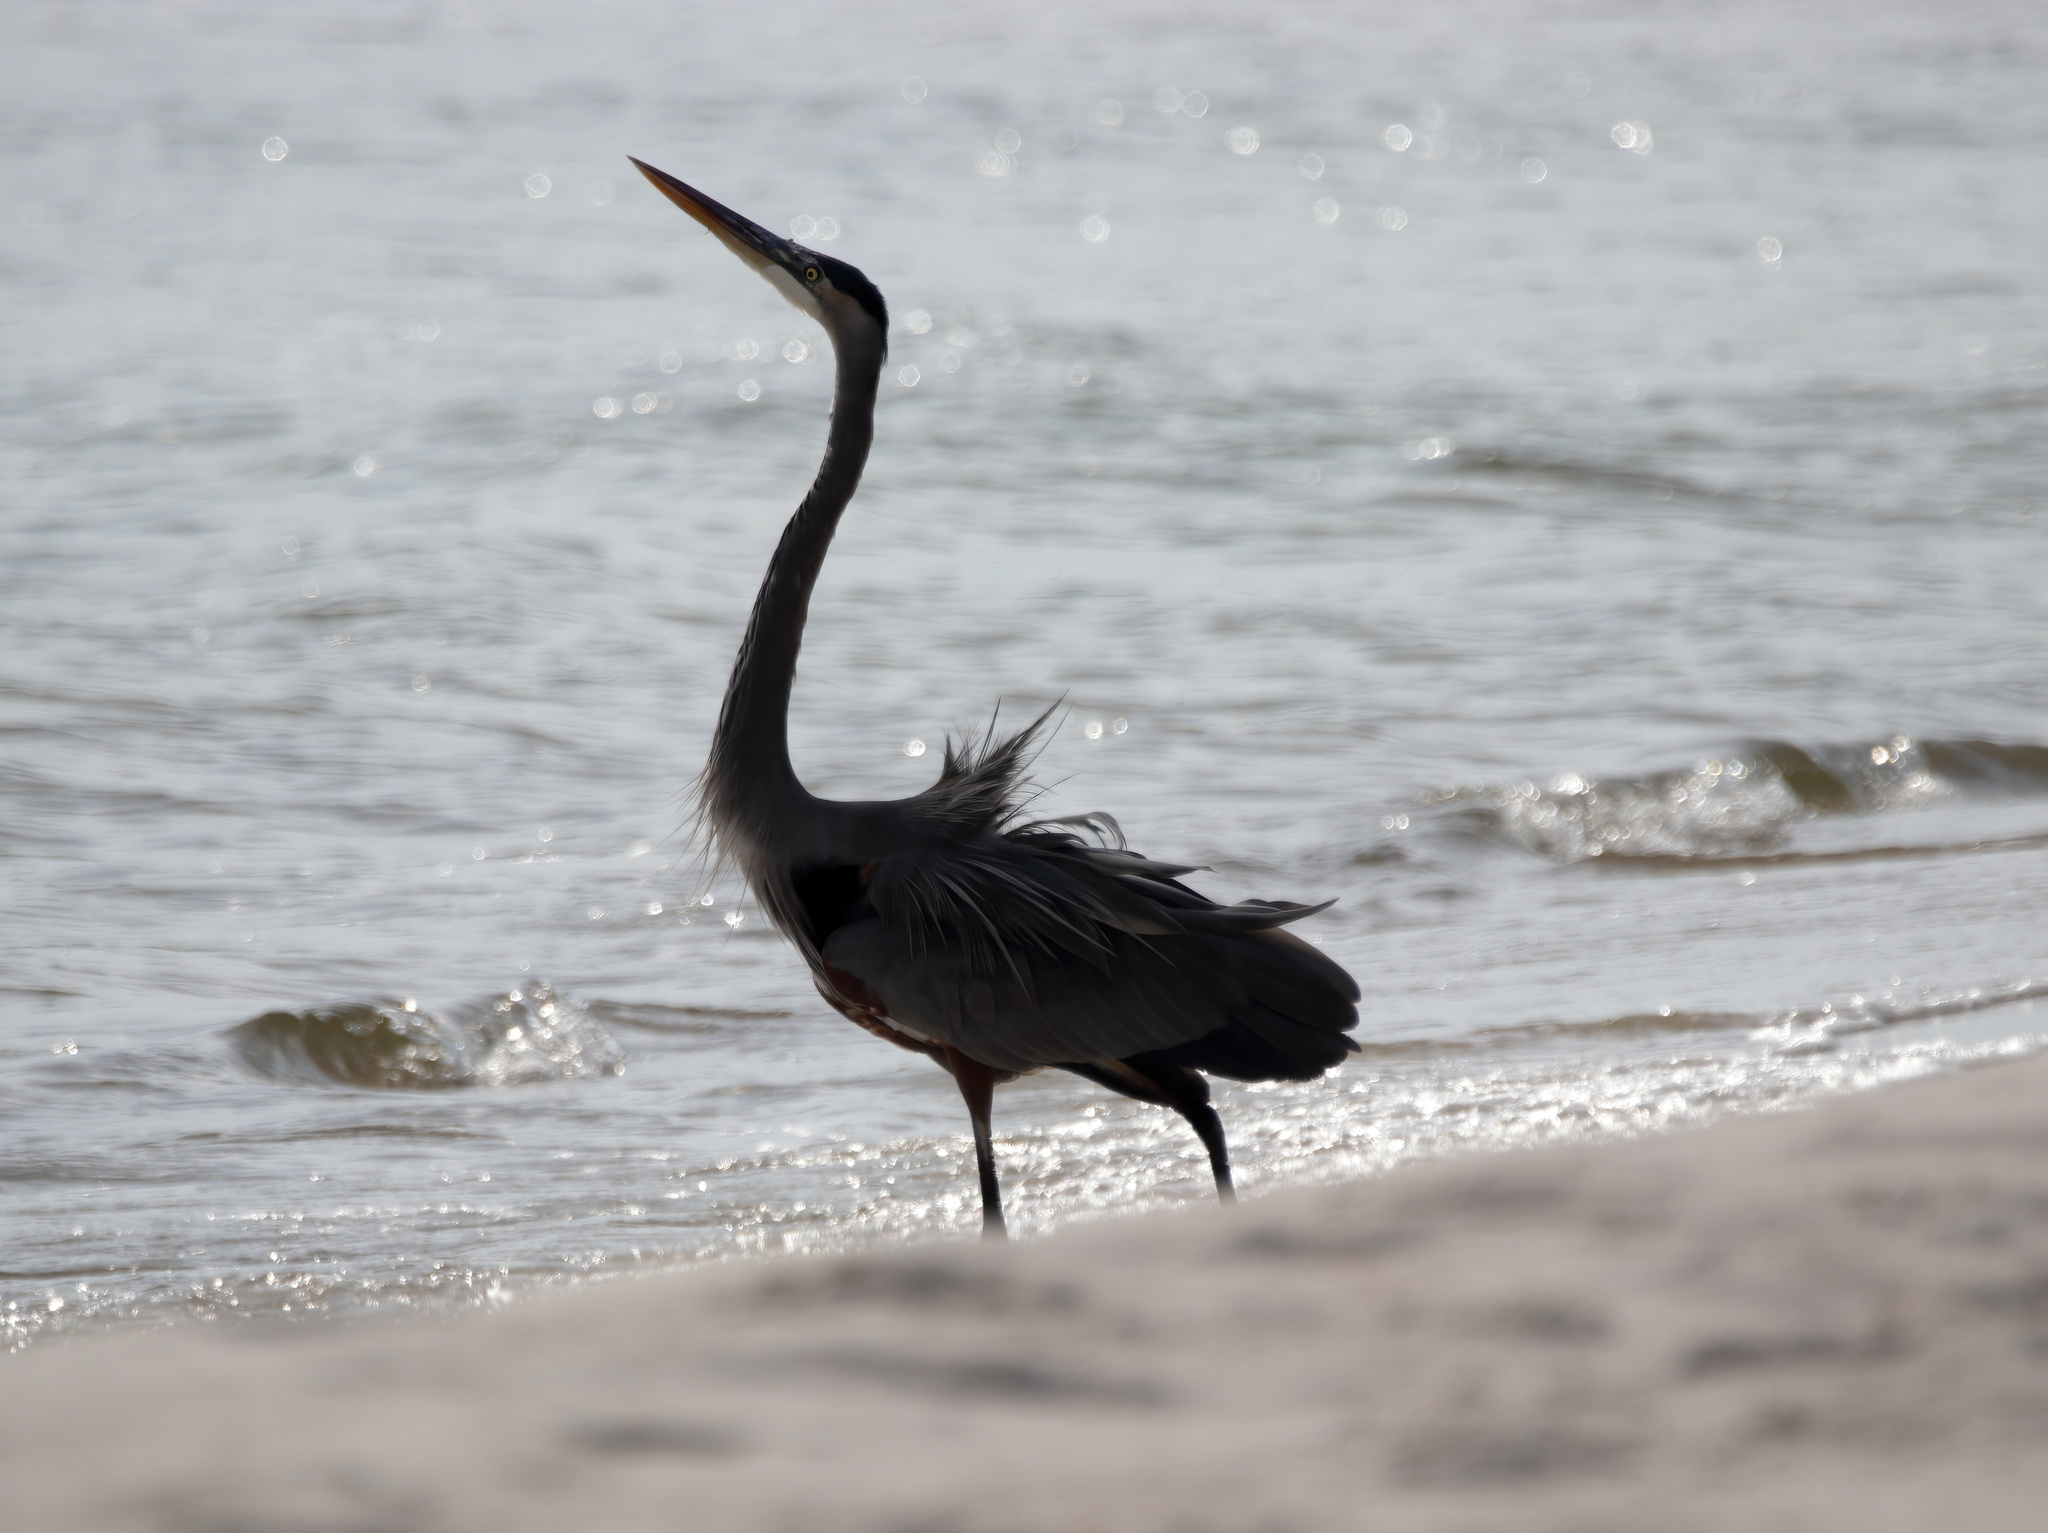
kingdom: Animalia
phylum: Chordata
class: Aves
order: Pelecaniformes
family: Ardeidae
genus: Ardea
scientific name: Ardea herodias
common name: Great blue heron
